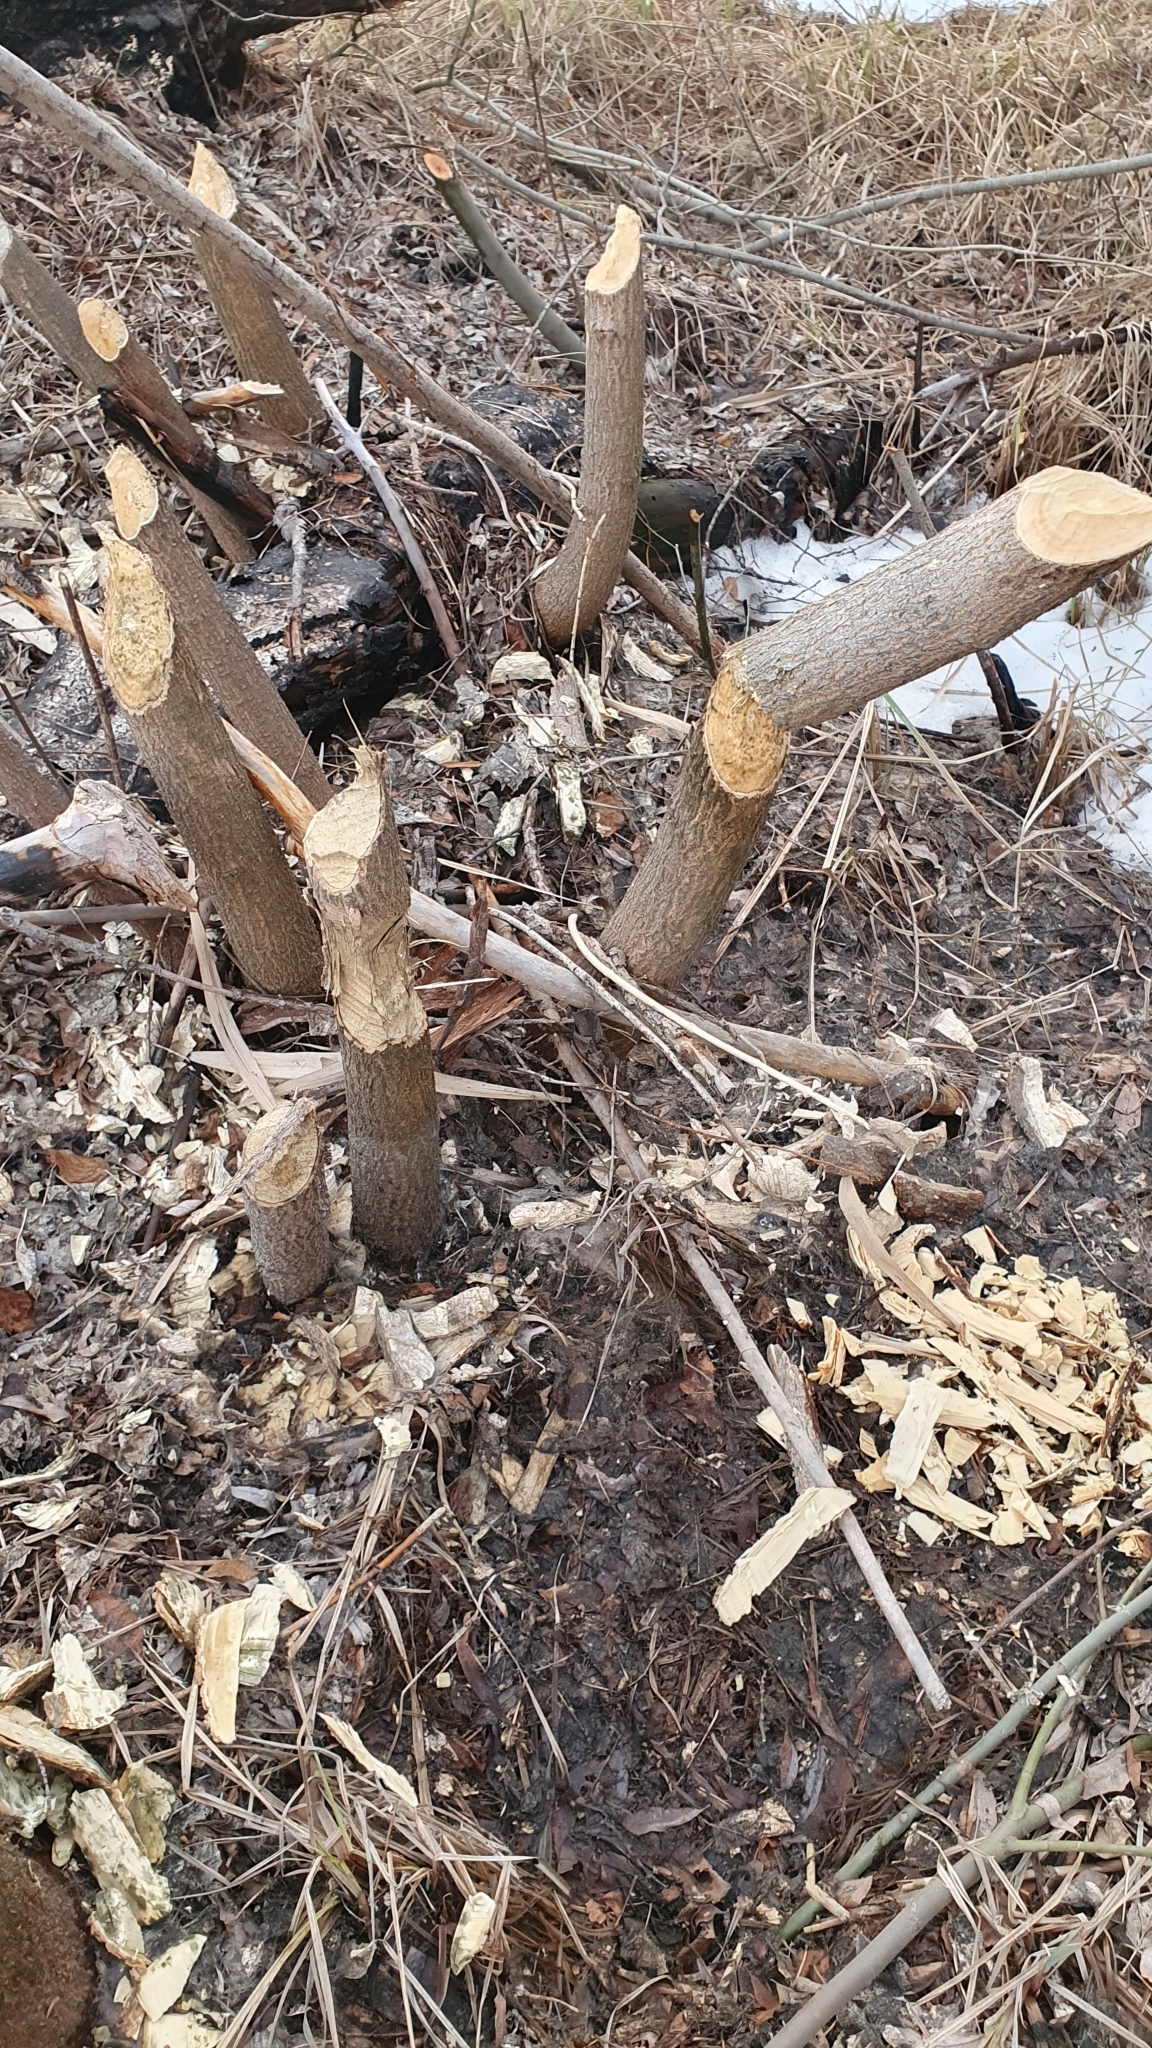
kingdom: Animalia
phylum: Chordata
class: Mammalia
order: Rodentia
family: Castoridae
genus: Castor
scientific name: Castor fiber
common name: Eurasian beaver
